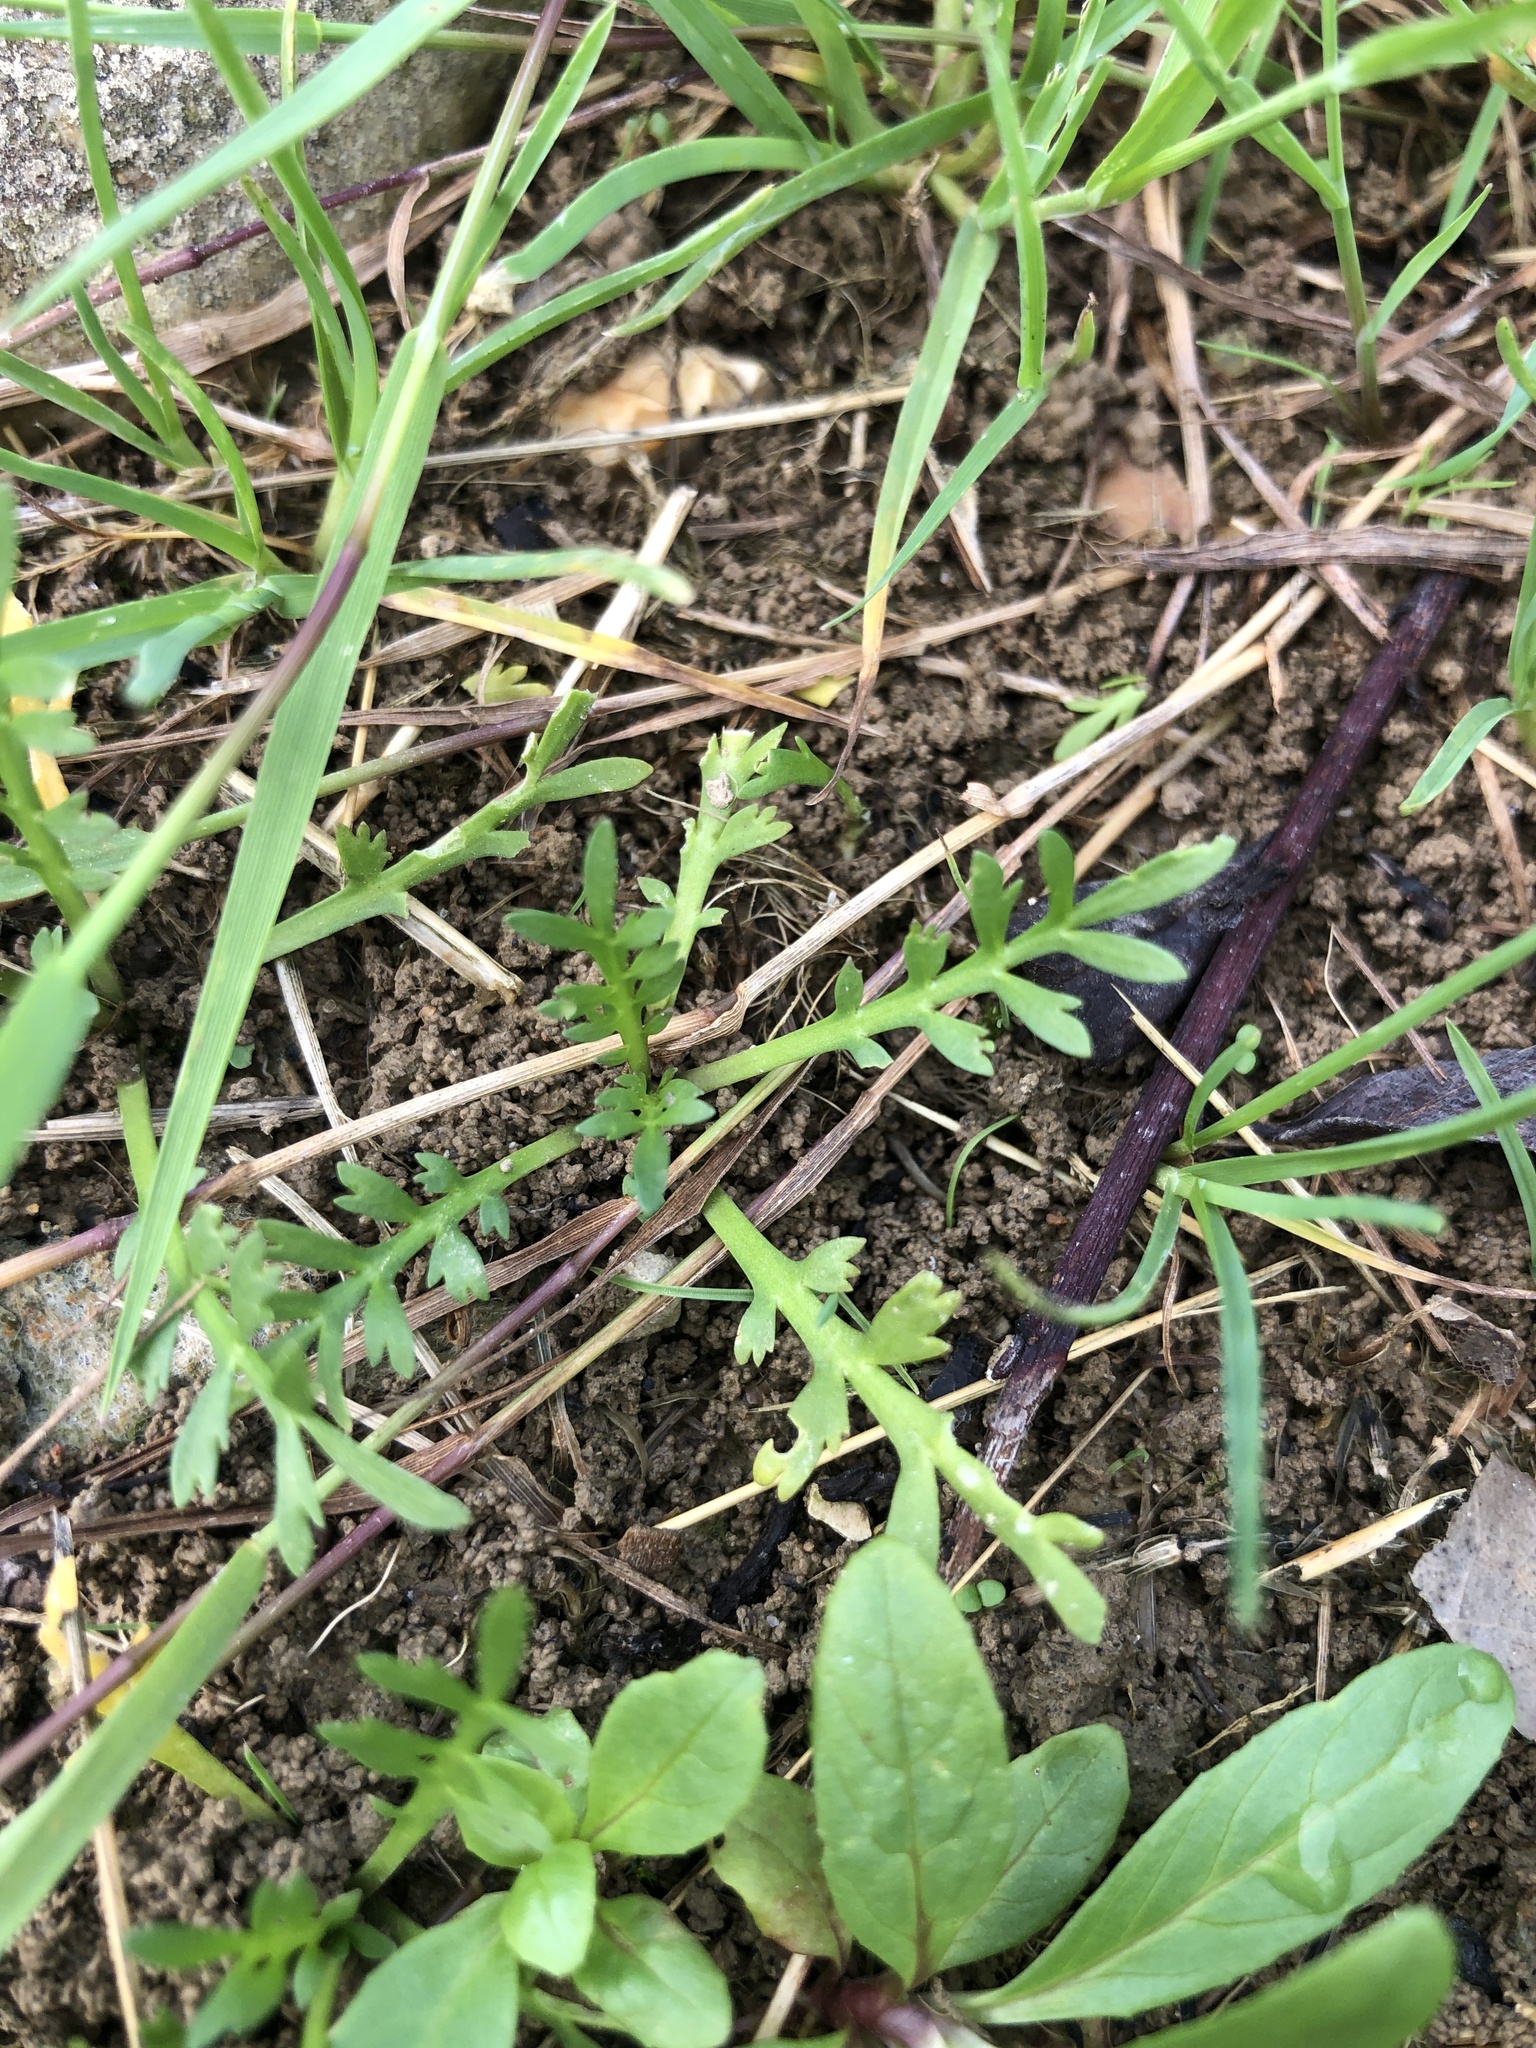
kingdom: Plantae
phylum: Tracheophyta
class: Magnoliopsida
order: Brassicales
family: Brassicaceae
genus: Lepidium
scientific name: Lepidium coronopus
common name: Greater swinecress
